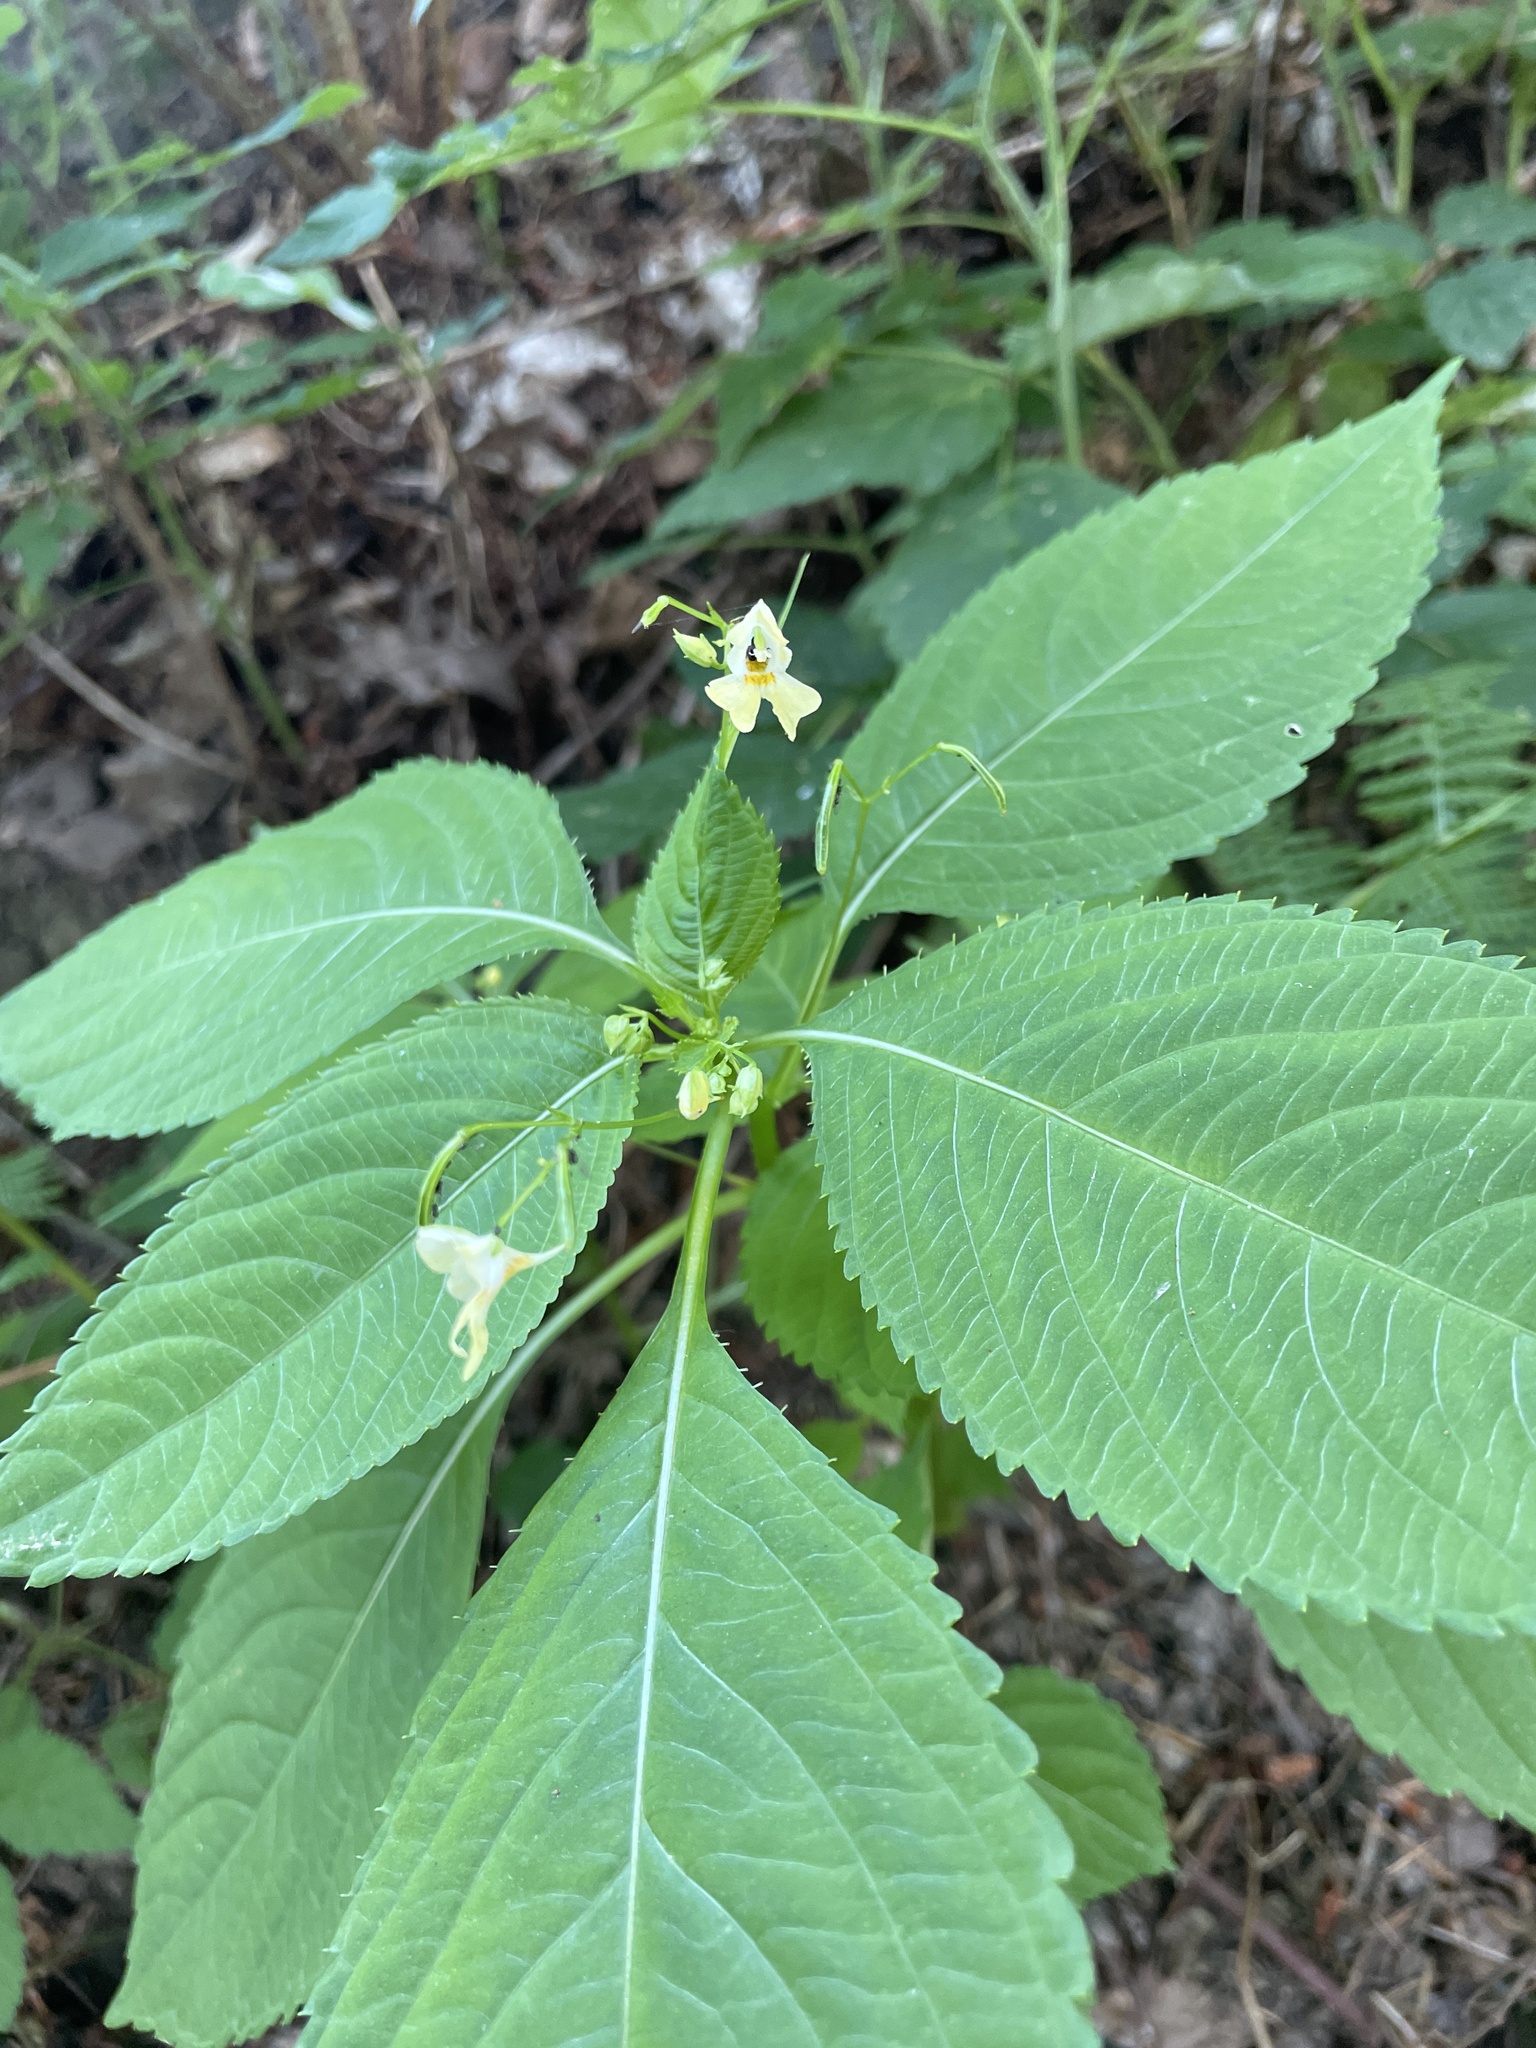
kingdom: Plantae
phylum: Tracheophyta
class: Magnoliopsida
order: Ericales
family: Balsaminaceae
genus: Impatiens
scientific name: Impatiens parviflora
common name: Small balsam
